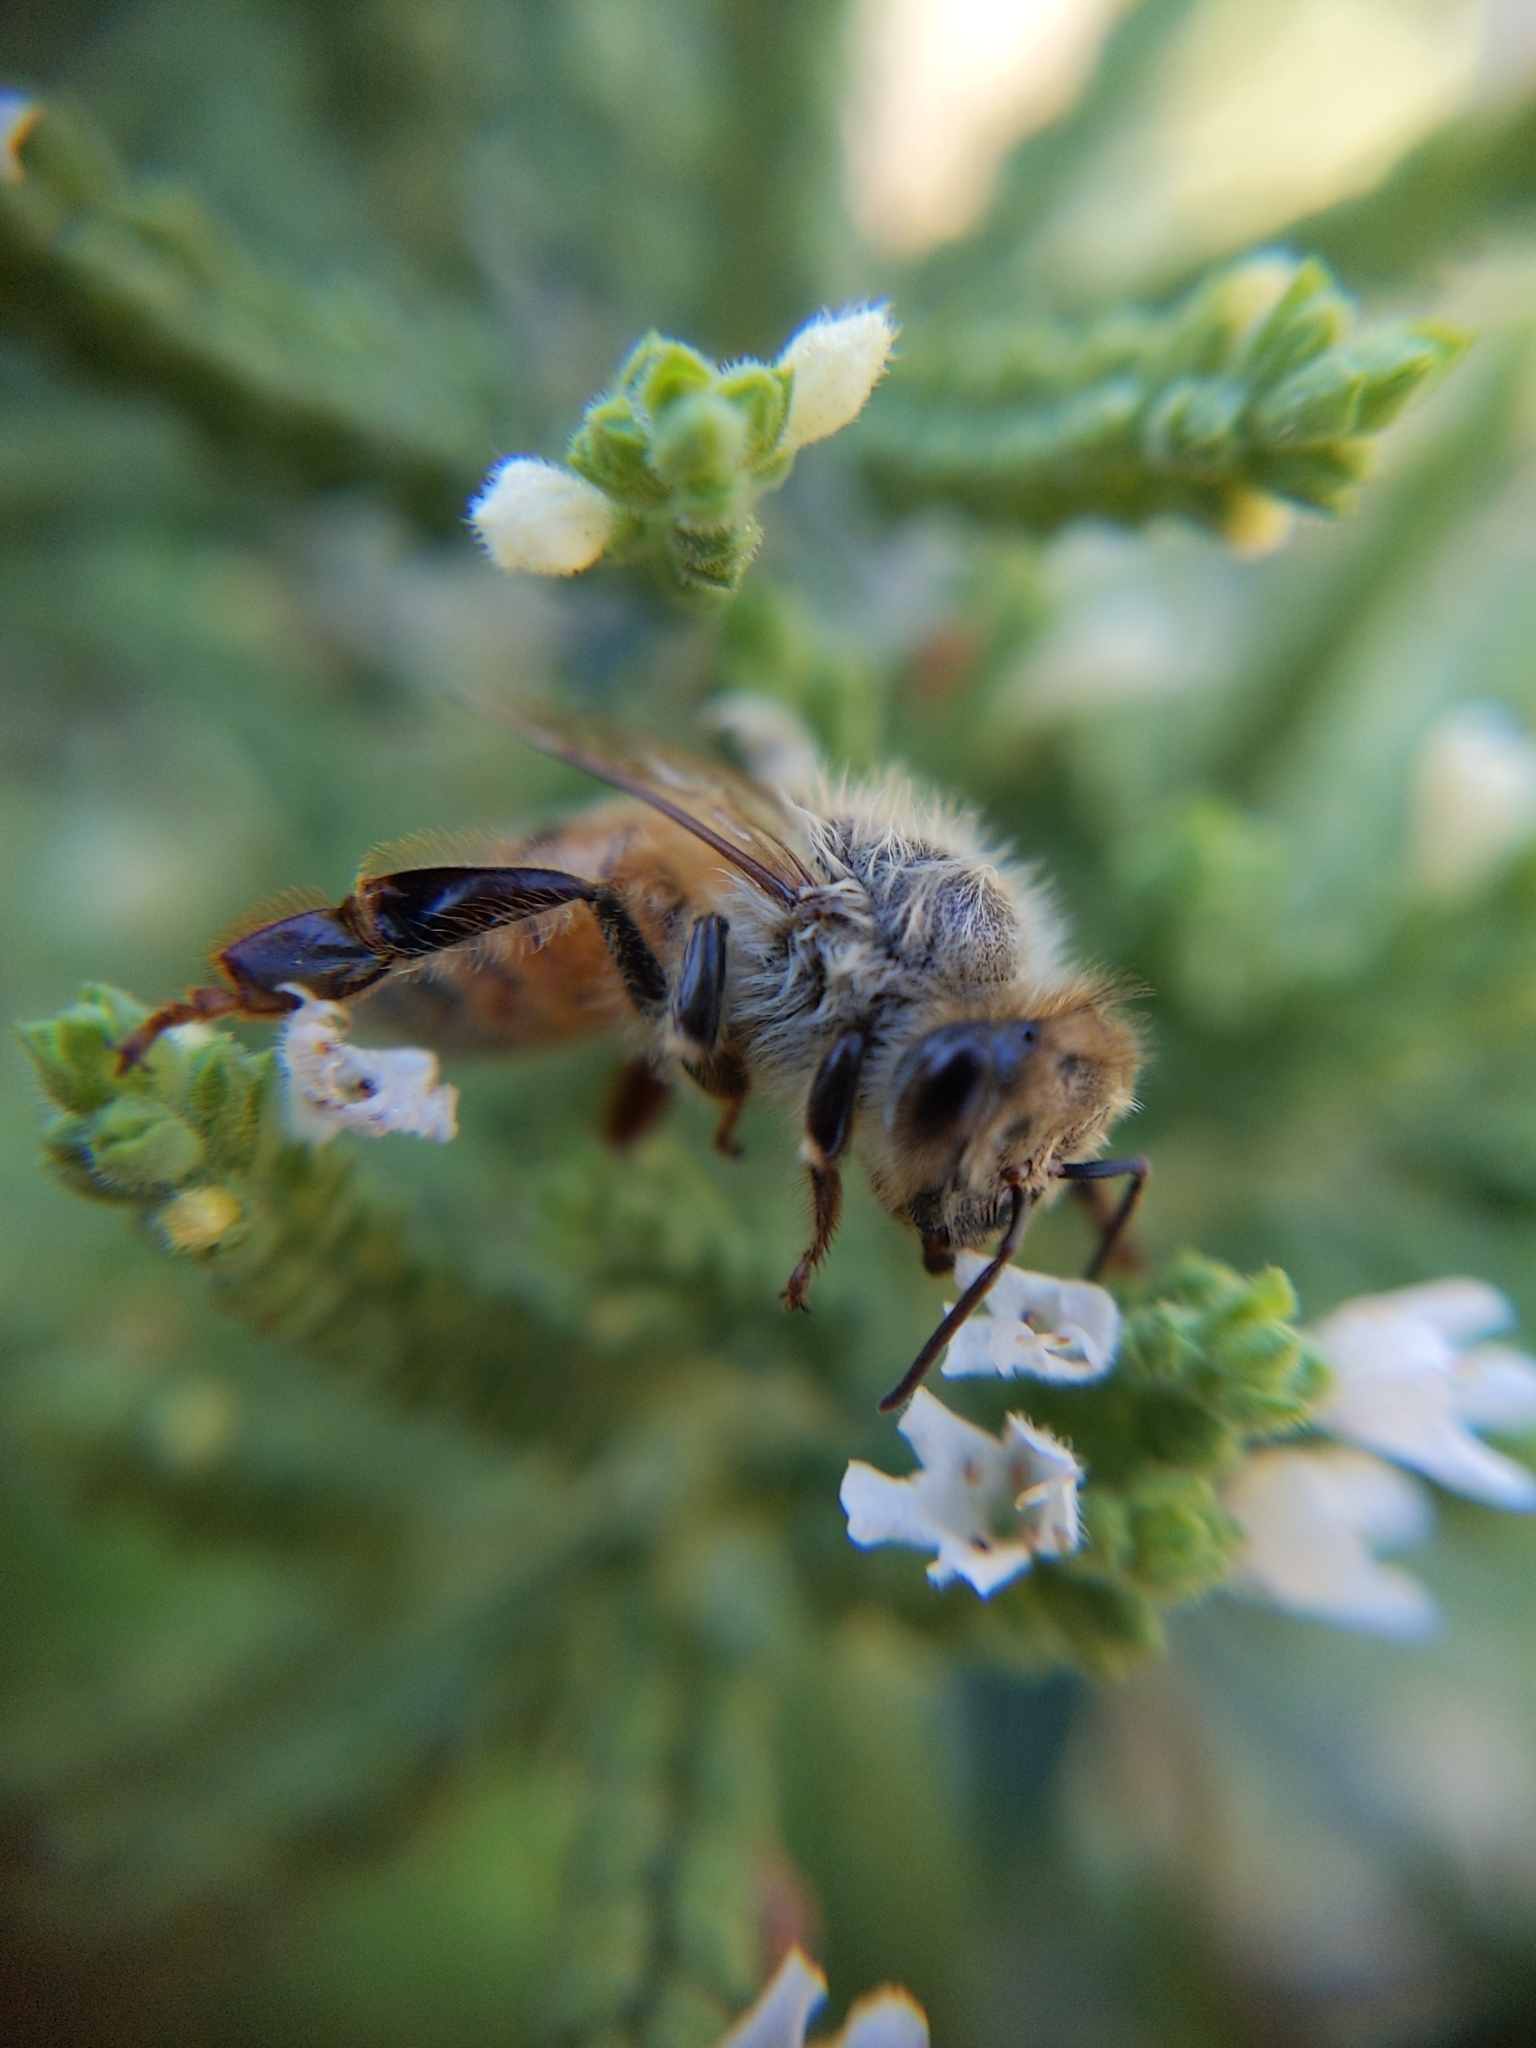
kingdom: Animalia
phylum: Arthropoda
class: Insecta
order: Hymenoptera
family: Apidae
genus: Apis
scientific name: Apis mellifera
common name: Honey bee
